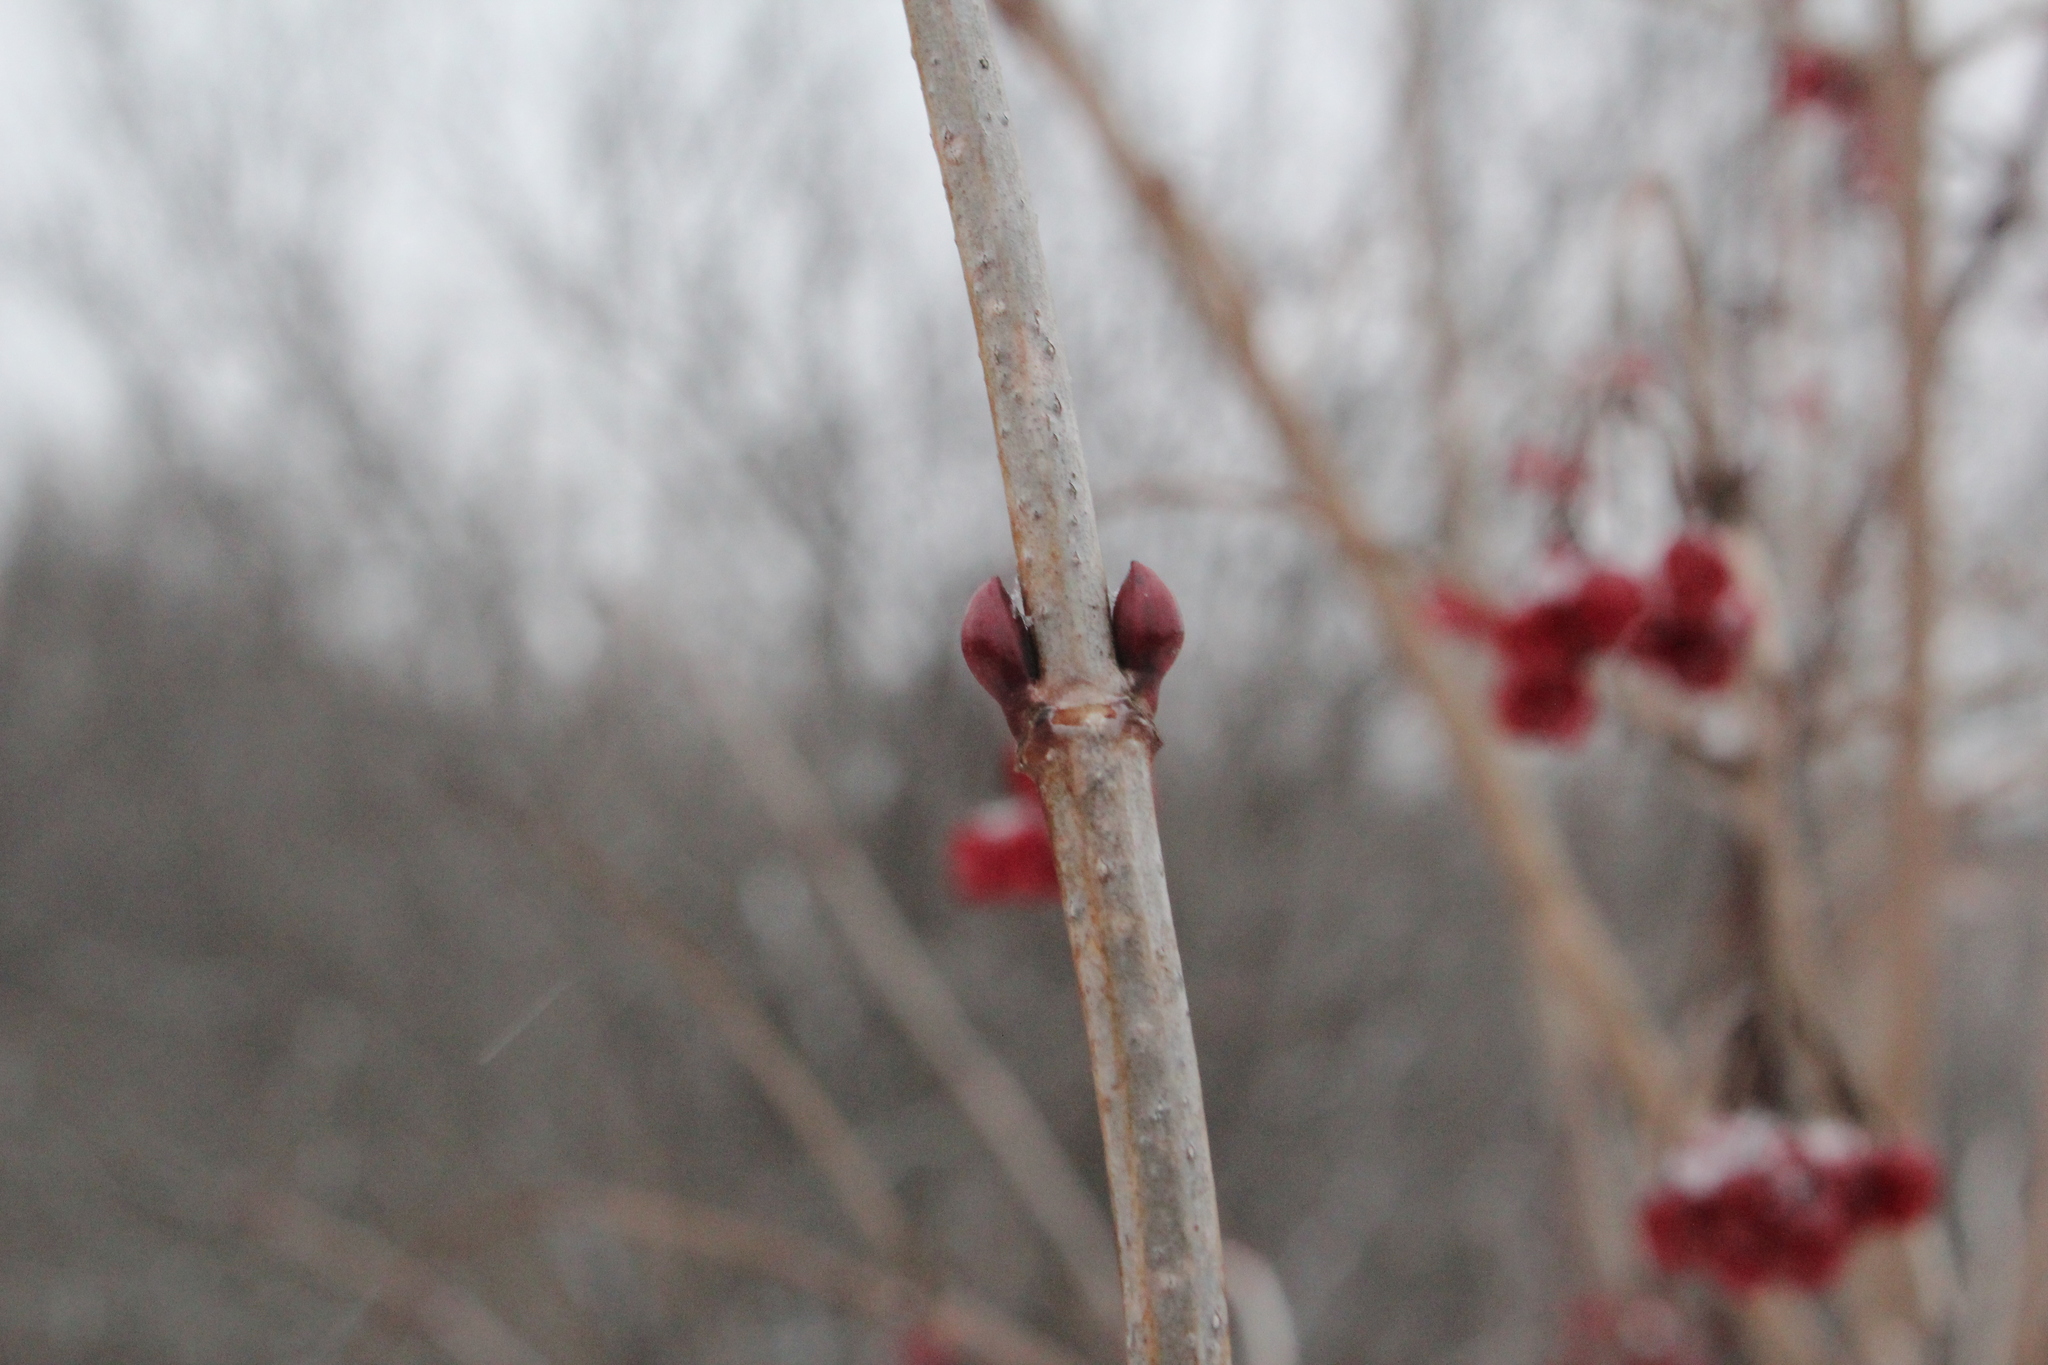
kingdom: Plantae
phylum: Tracheophyta
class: Magnoliopsida
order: Dipsacales
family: Viburnaceae
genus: Viburnum
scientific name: Viburnum opulus
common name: Guelder-rose
